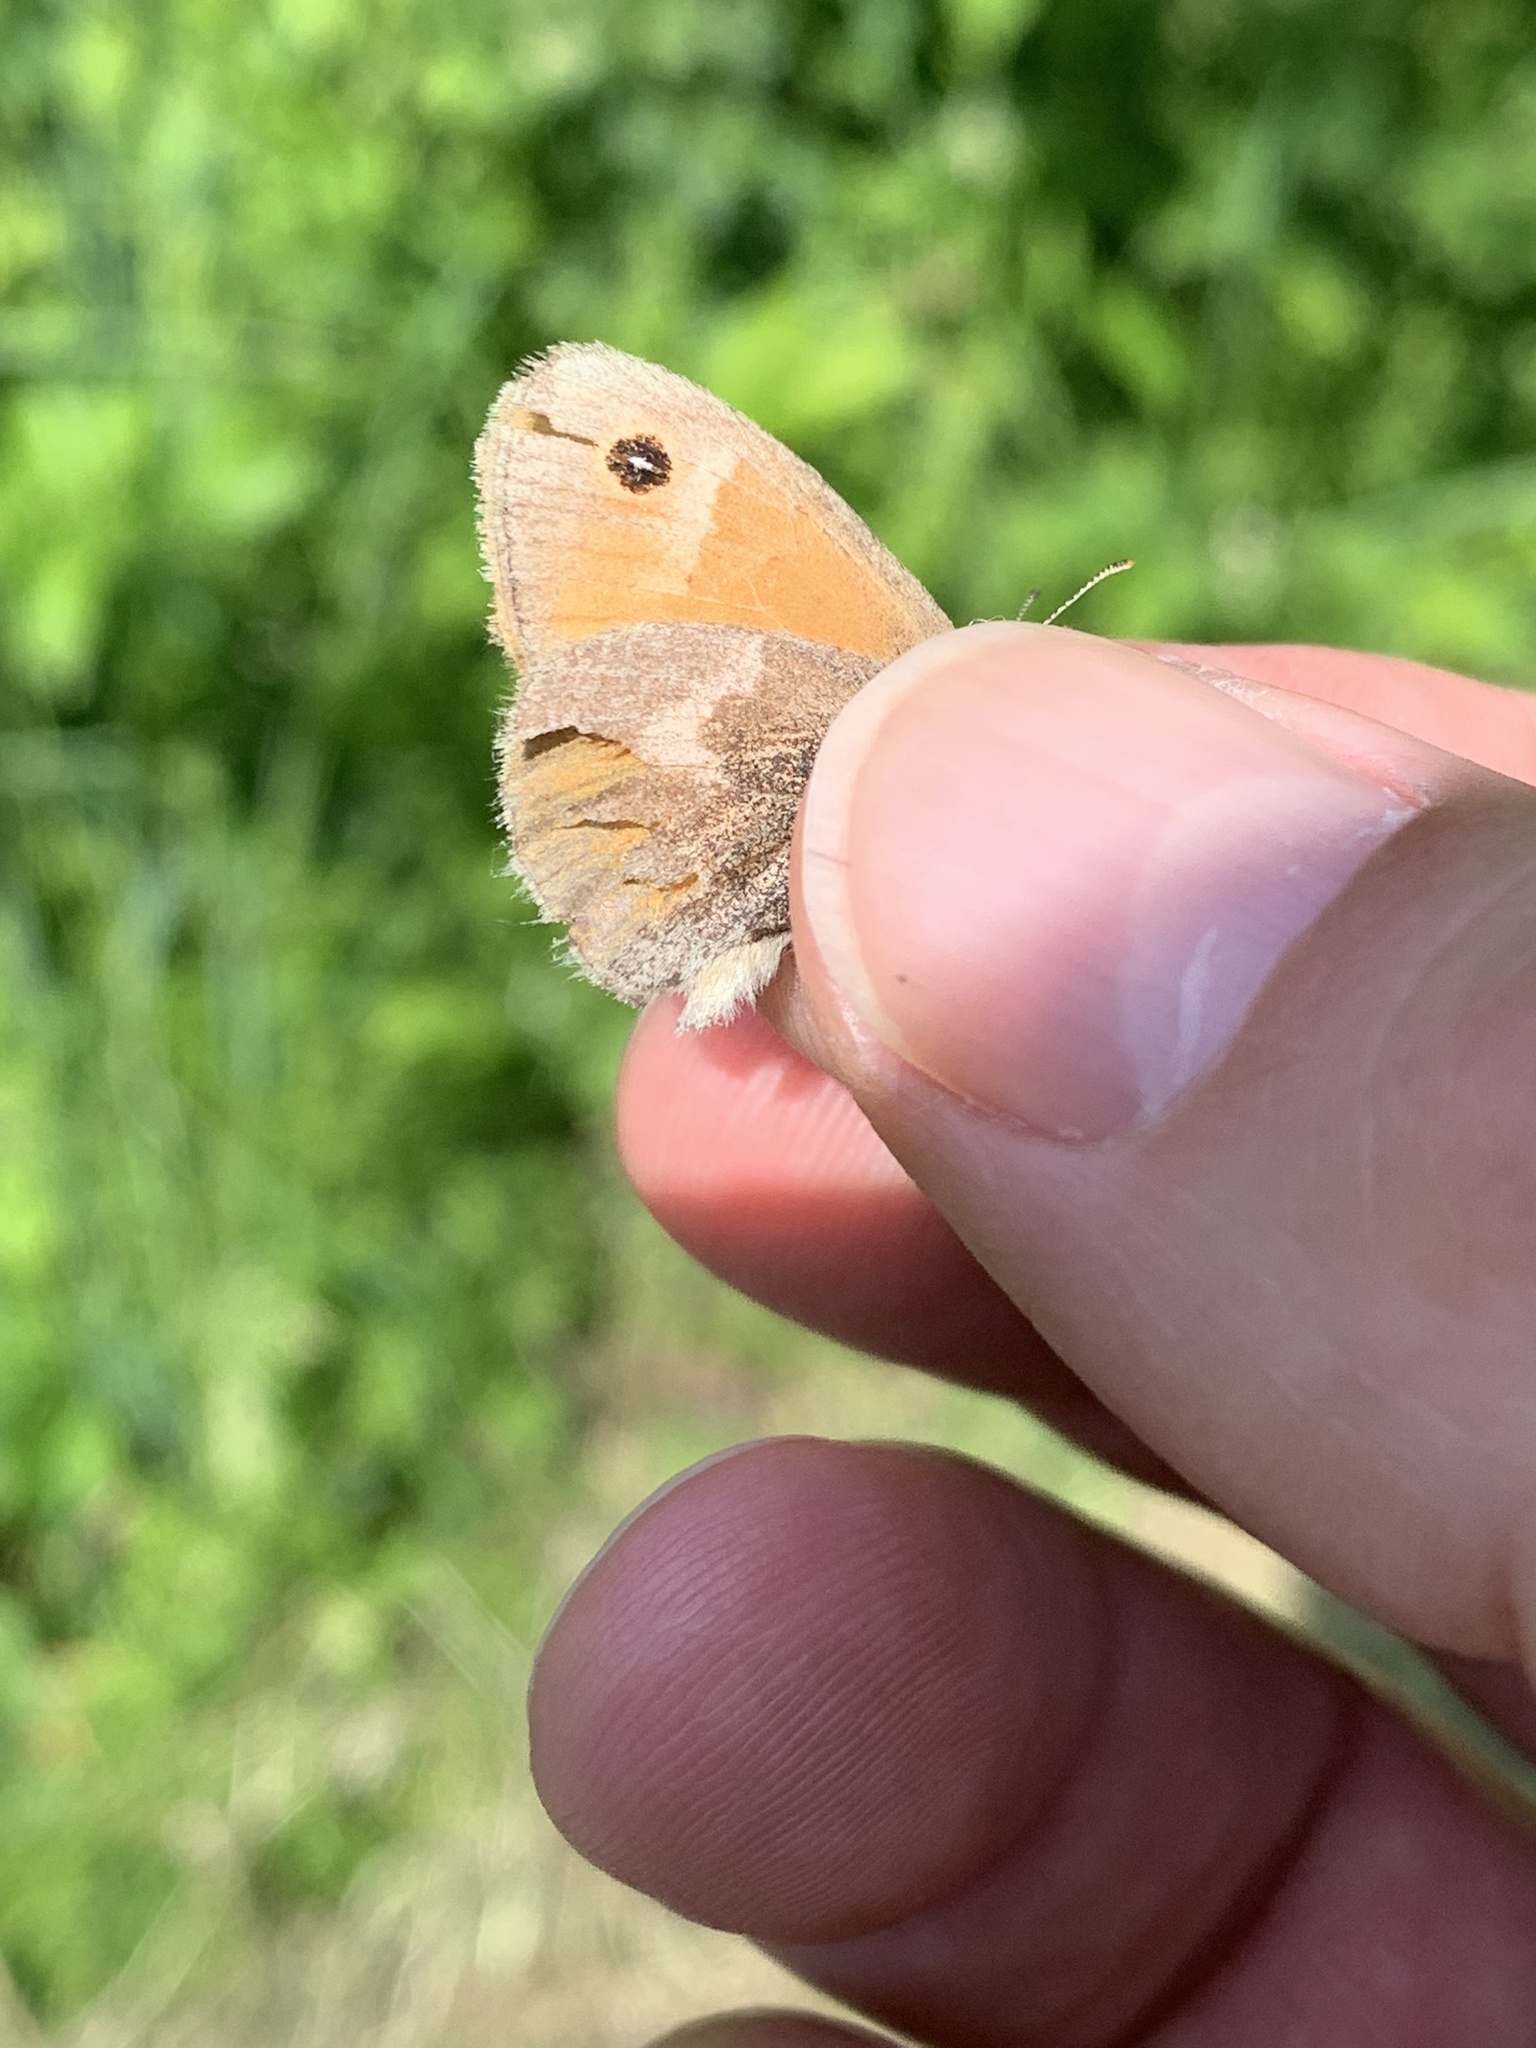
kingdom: Animalia
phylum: Arthropoda
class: Insecta
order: Lepidoptera
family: Nymphalidae
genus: Coenonympha
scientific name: Coenonympha california
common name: Common ringlet
